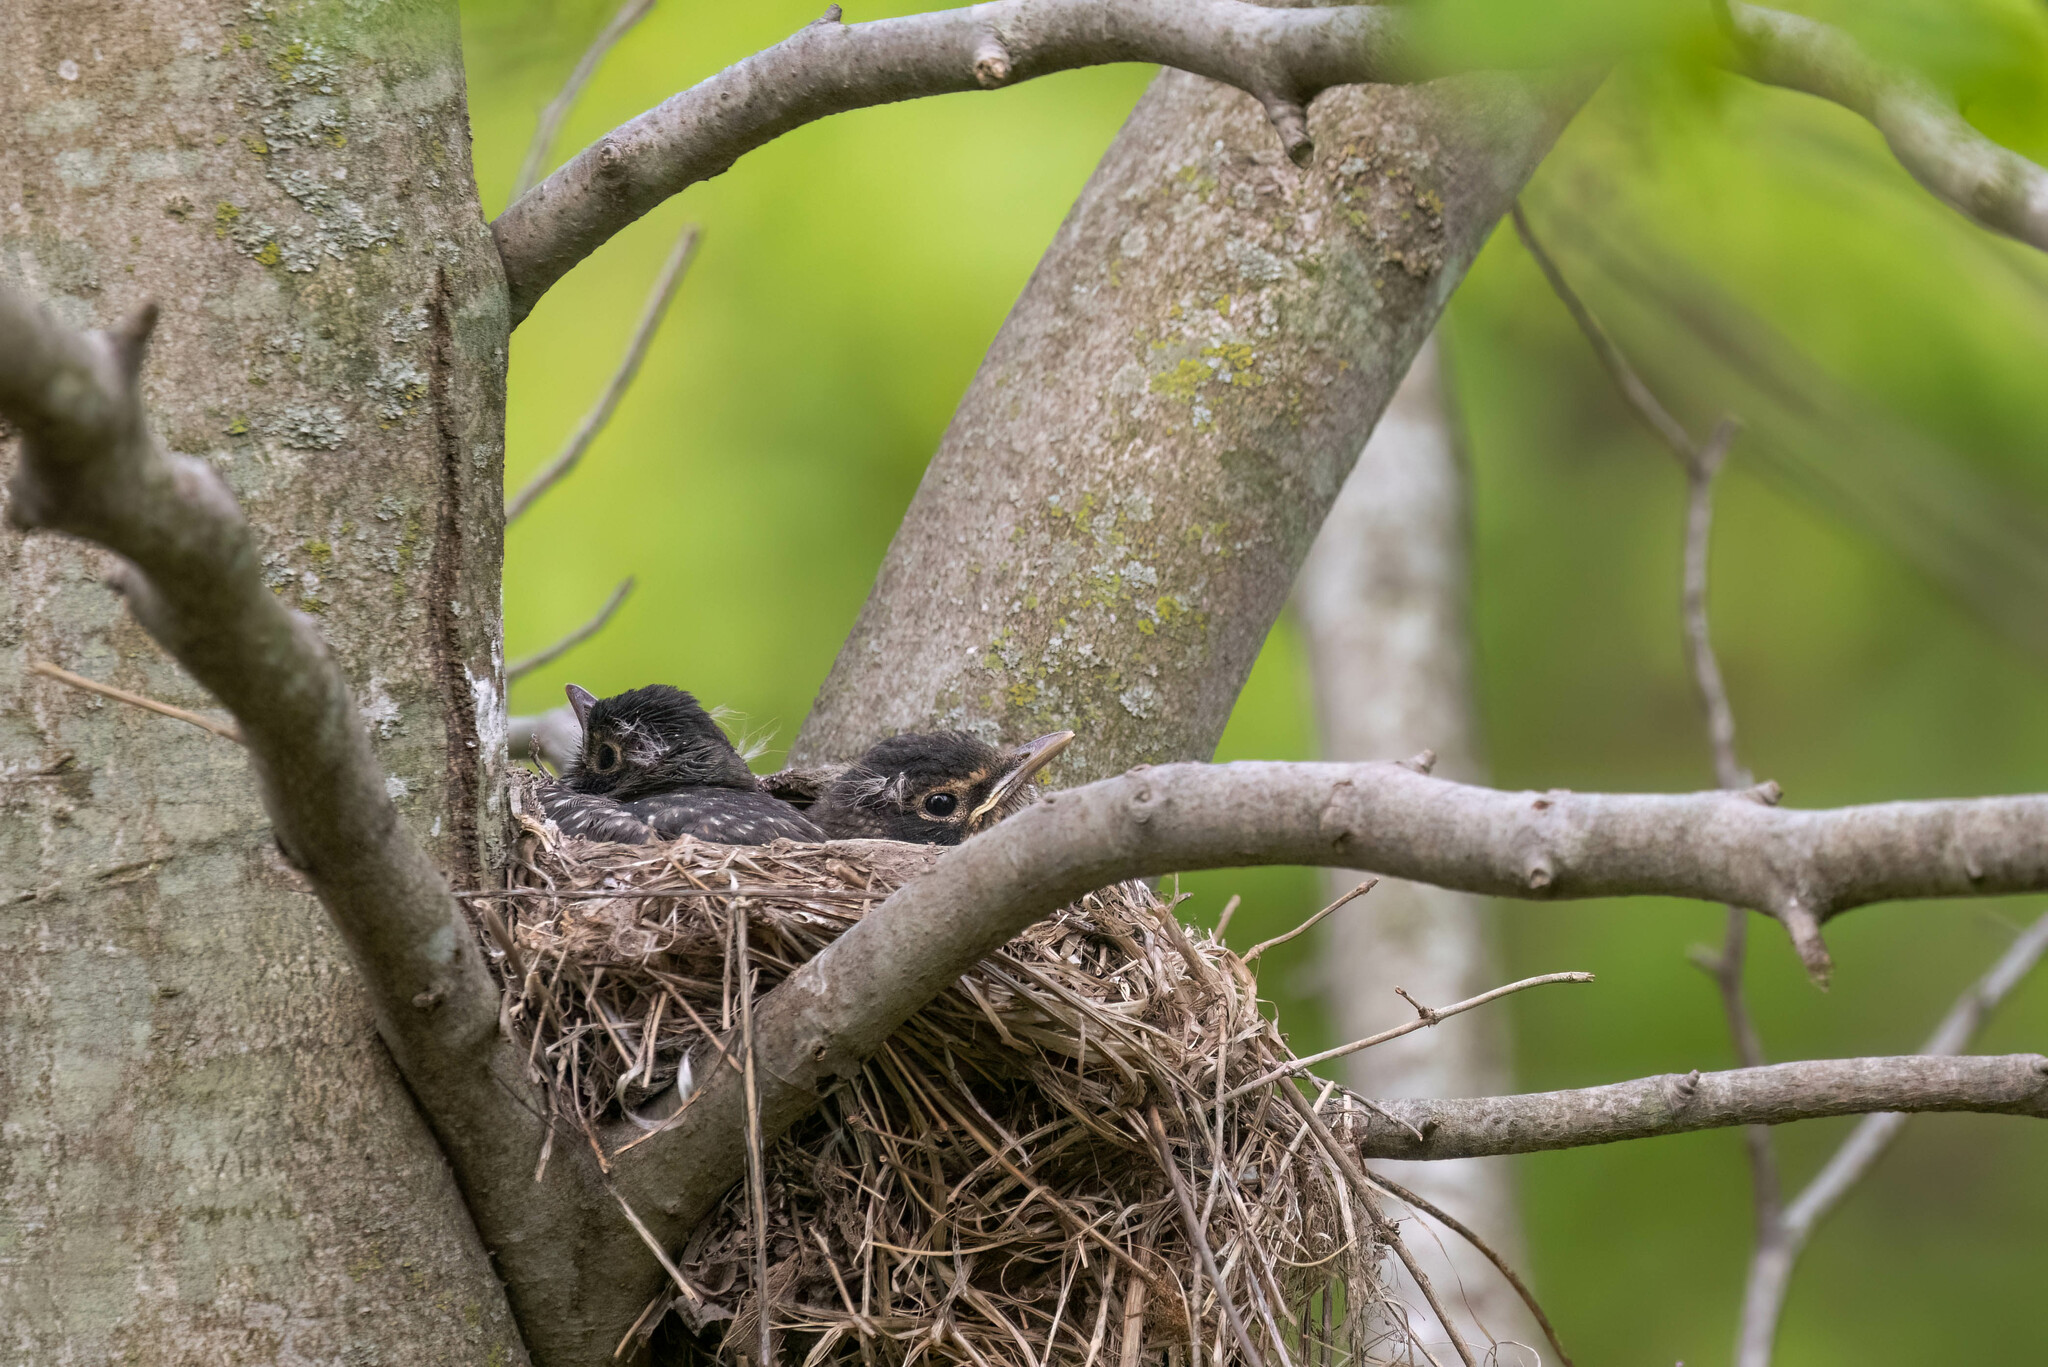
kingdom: Animalia
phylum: Chordata
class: Aves
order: Passeriformes
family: Turdidae
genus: Turdus
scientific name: Turdus migratorius
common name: American robin
